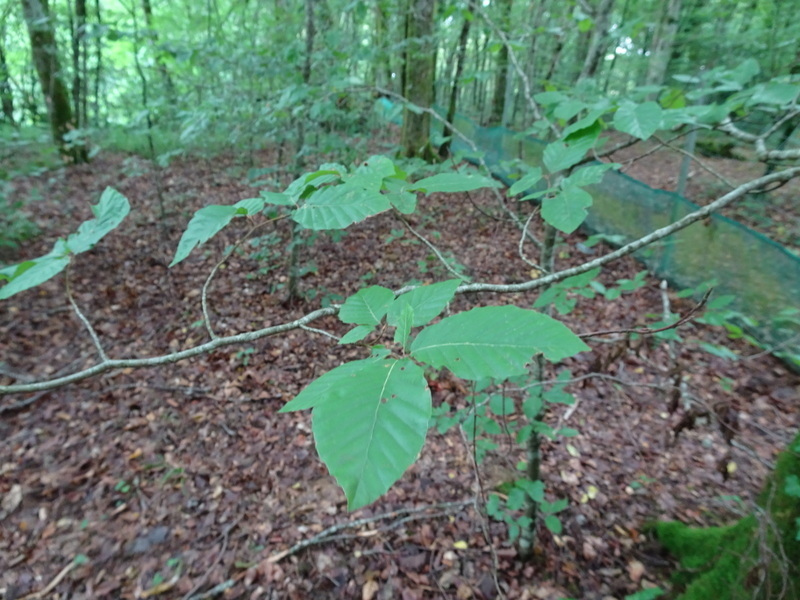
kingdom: Plantae
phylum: Tracheophyta
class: Magnoliopsida
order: Fagales
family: Fagaceae
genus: Fagus
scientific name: Fagus sylvatica
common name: Beech
